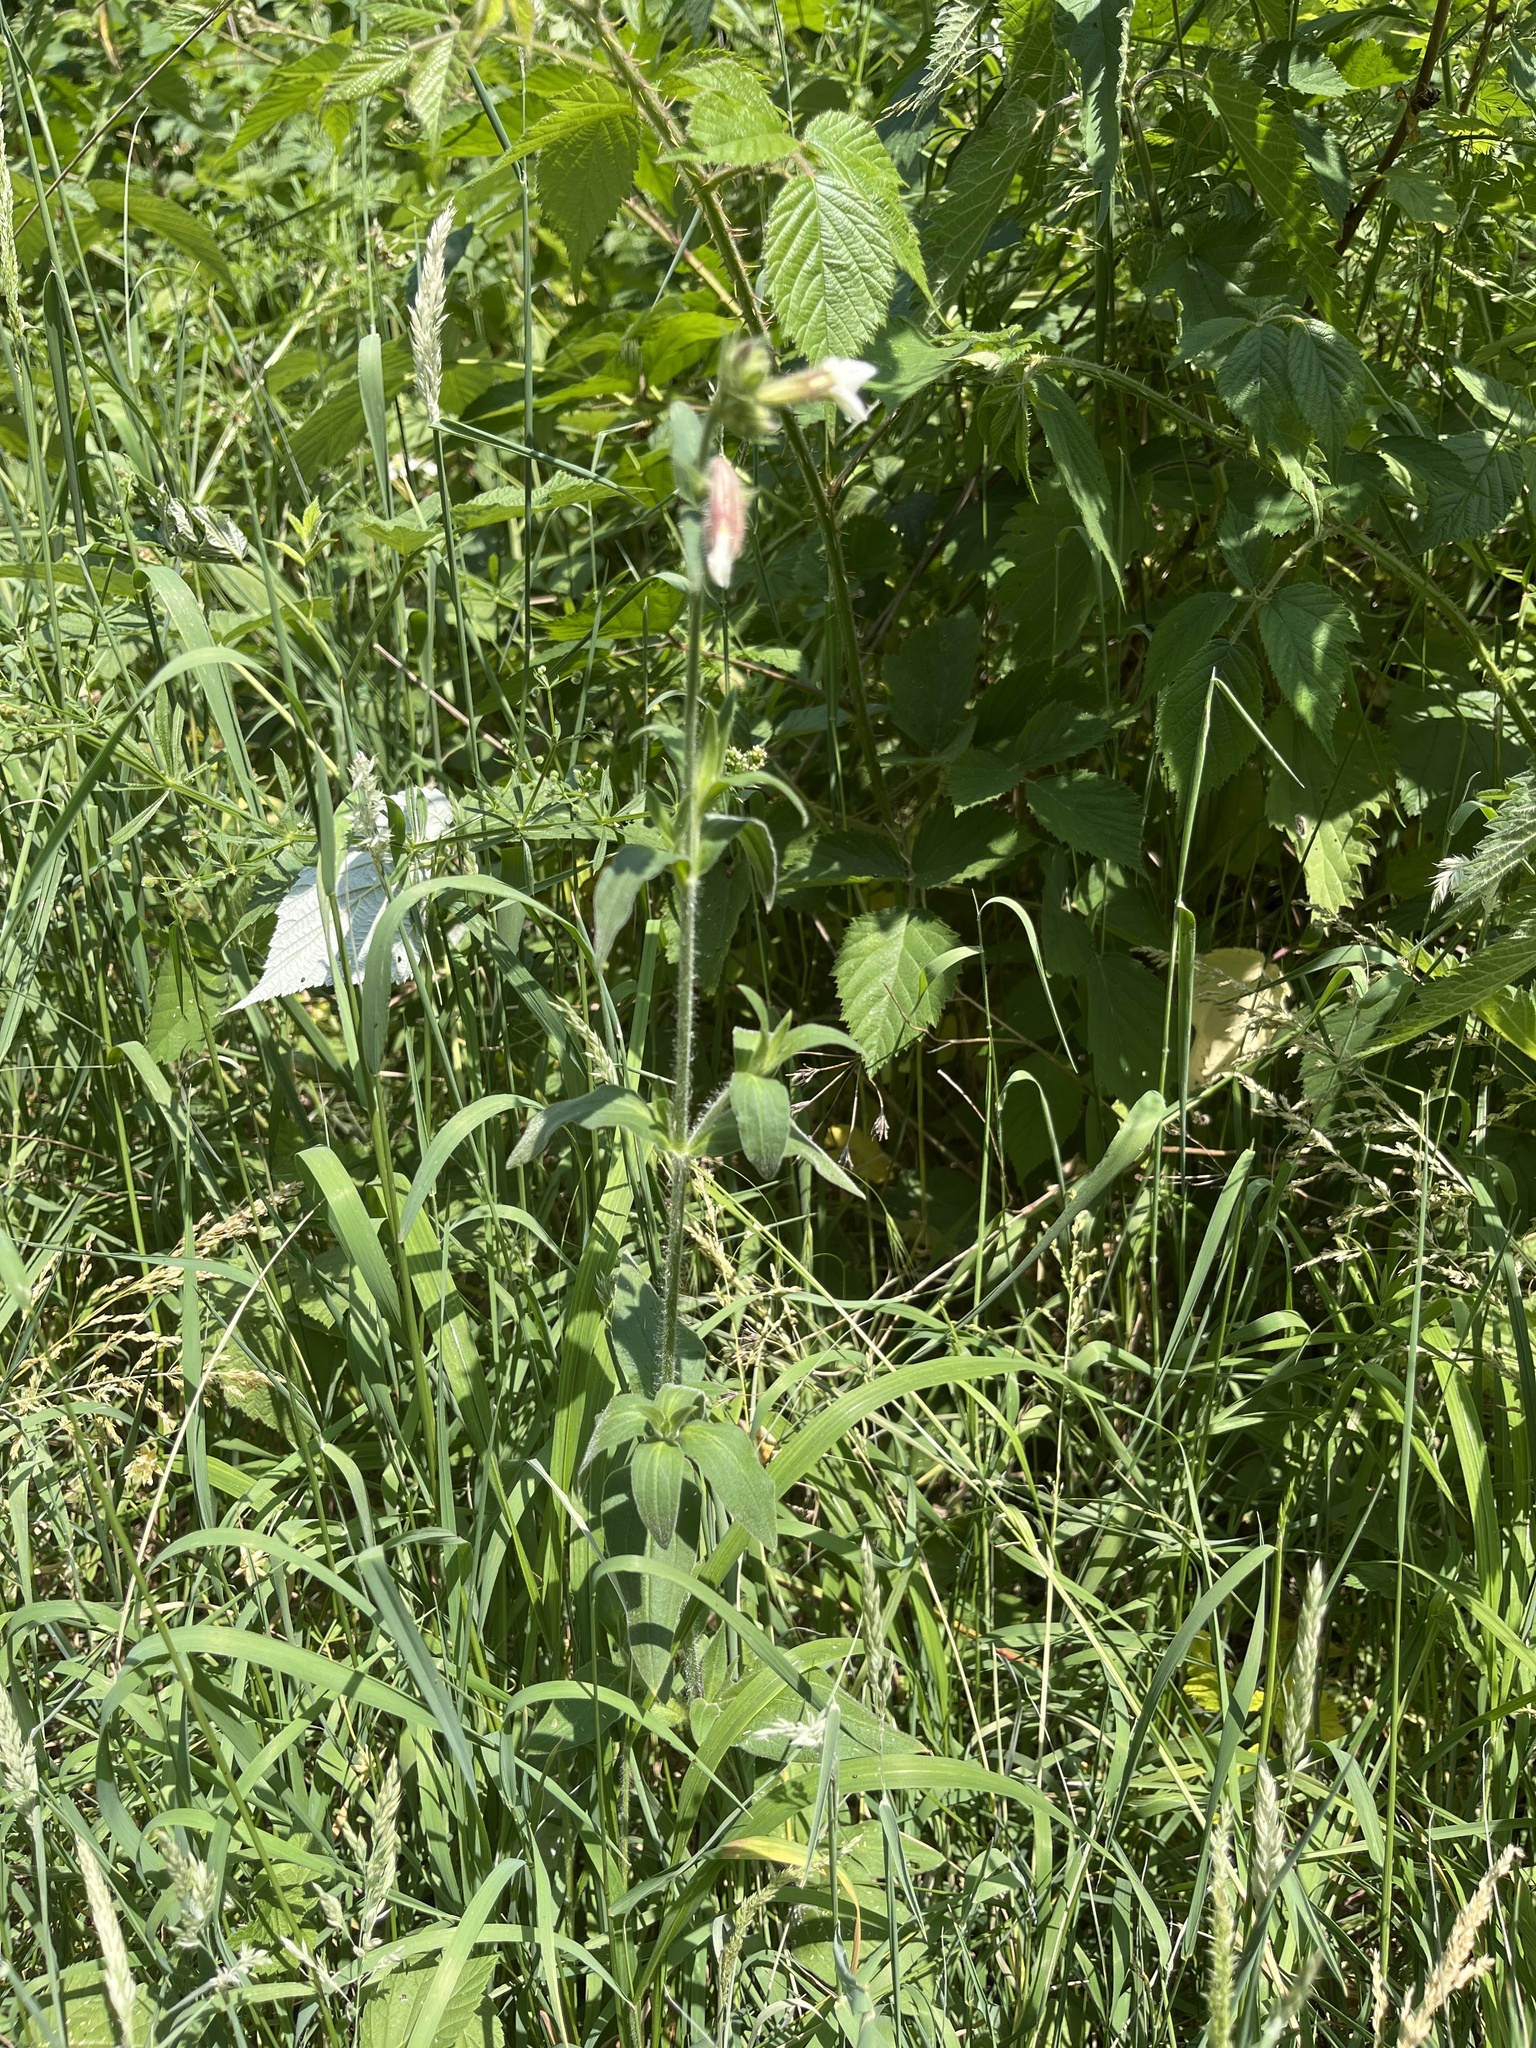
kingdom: Plantae
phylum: Tracheophyta
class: Magnoliopsida
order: Caryophyllales
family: Caryophyllaceae
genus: Silene
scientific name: Silene latifolia
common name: White campion
